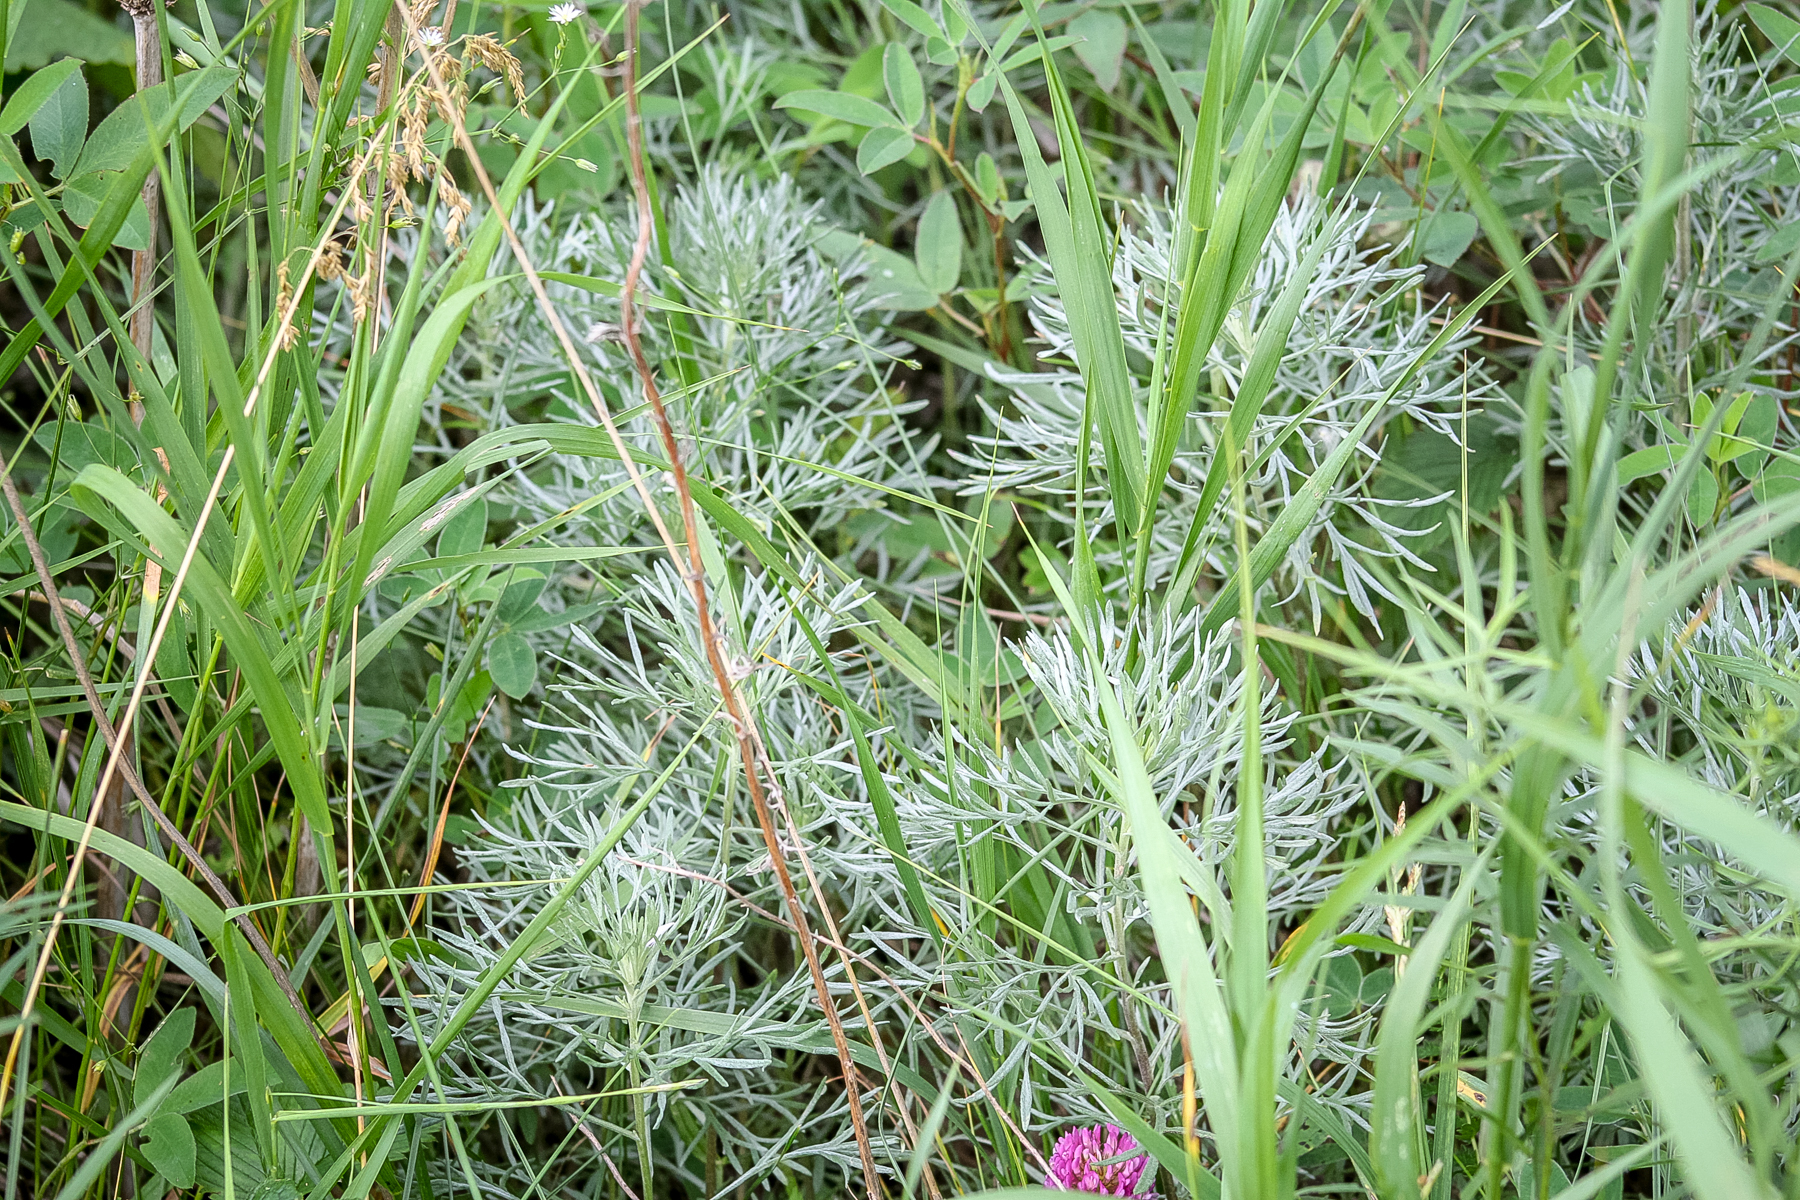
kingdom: Plantae
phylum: Tracheophyta
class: Magnoliopsida
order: Asterales
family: Asteraceae
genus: Artemisia
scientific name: Artemisia sericea
